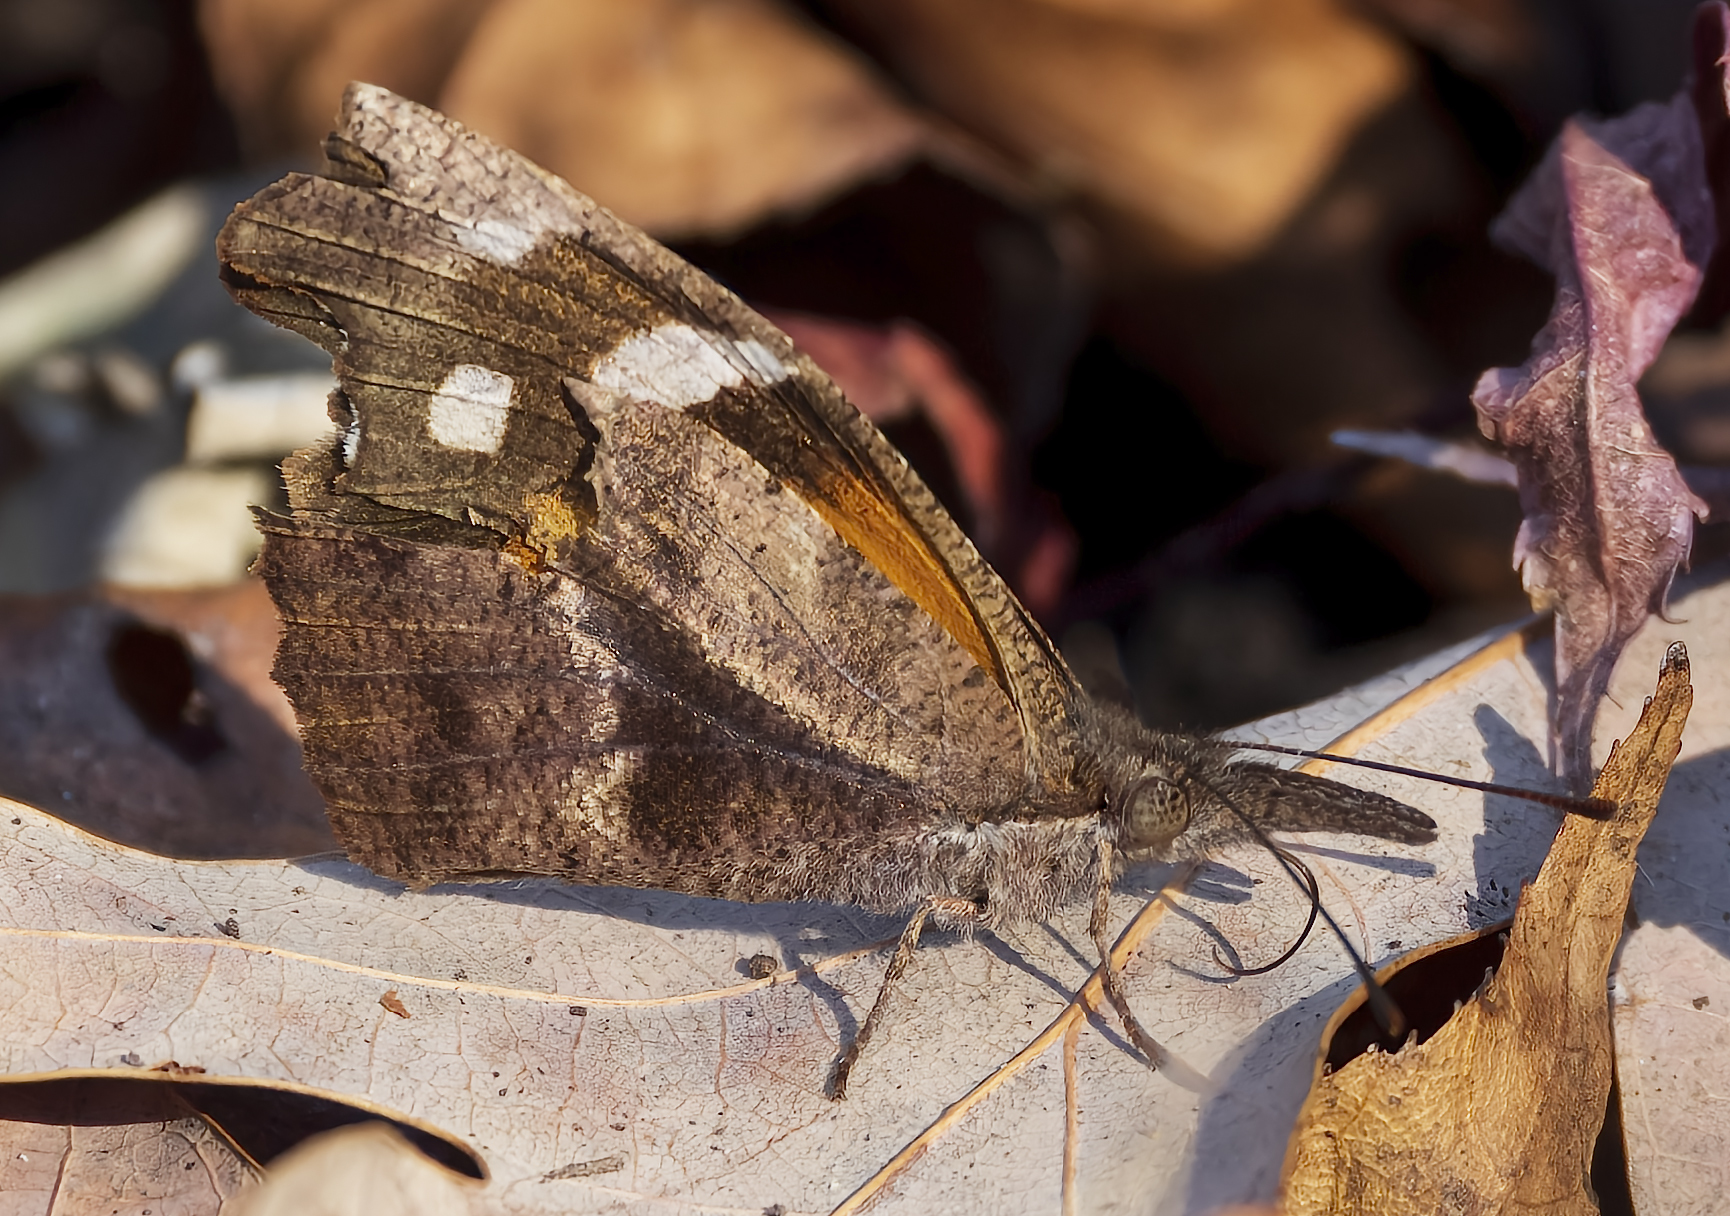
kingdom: Animalia
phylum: Arthropoda
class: Insecta
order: Lepidoptera
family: Nymphalidae
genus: Libytheana
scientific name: Libytheana carinenta
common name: American snout
